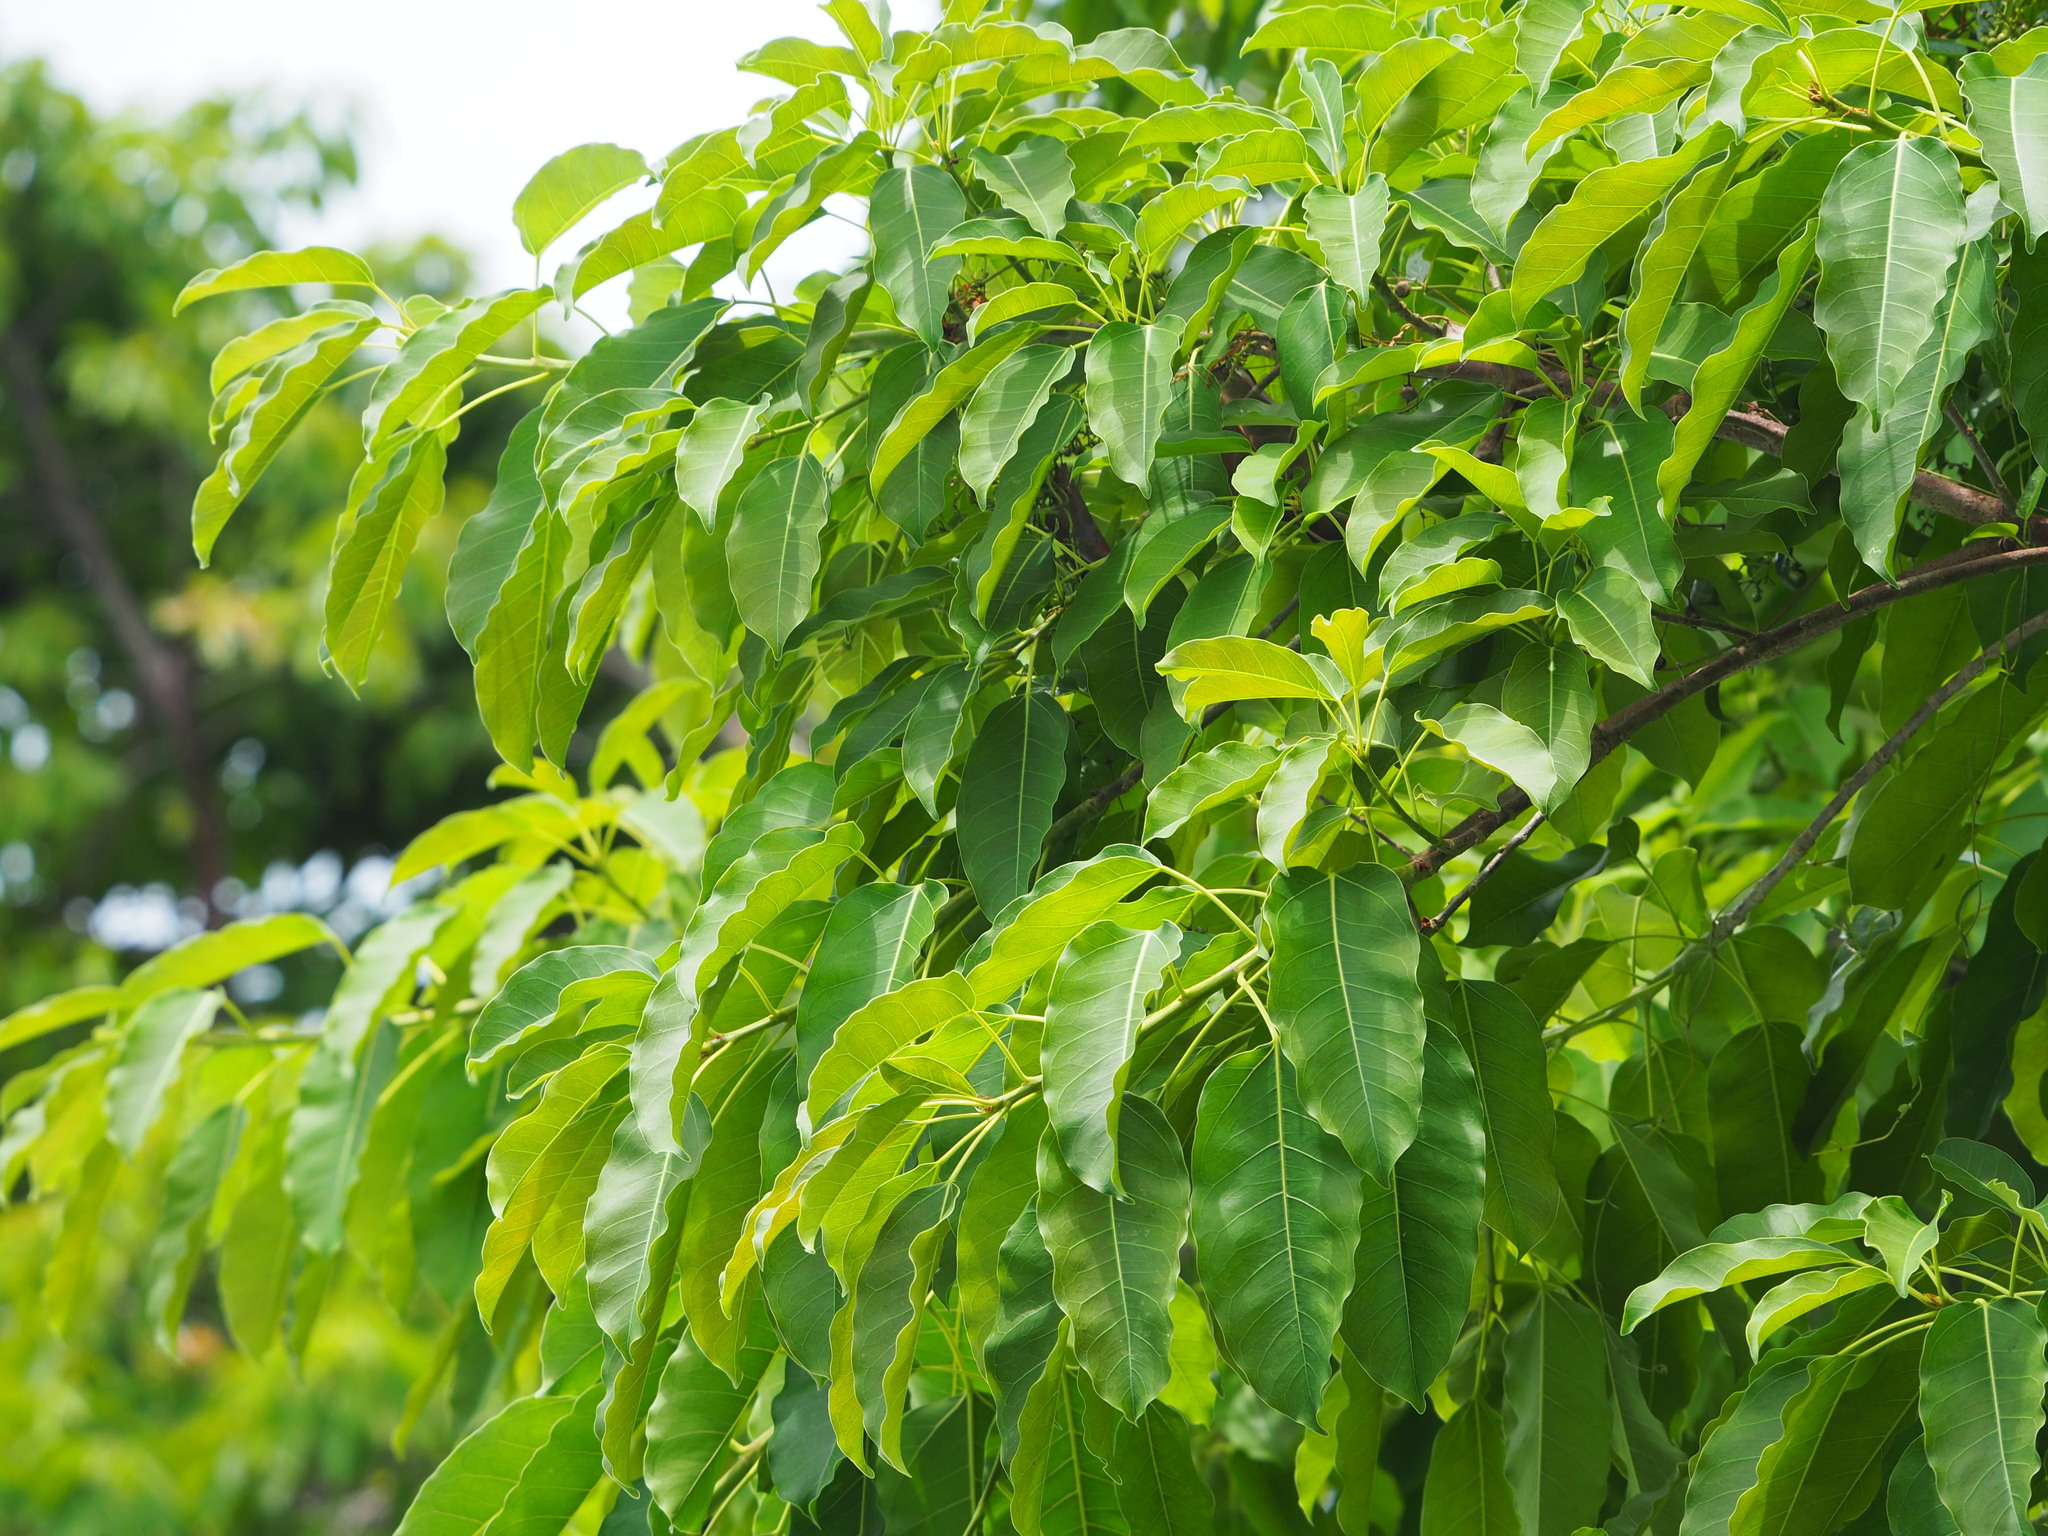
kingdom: Plantae
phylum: Tracheophyta
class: Magnoliopsida
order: Rosales
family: Moraceae
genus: Ficus
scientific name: Ficus subpisocarpa
